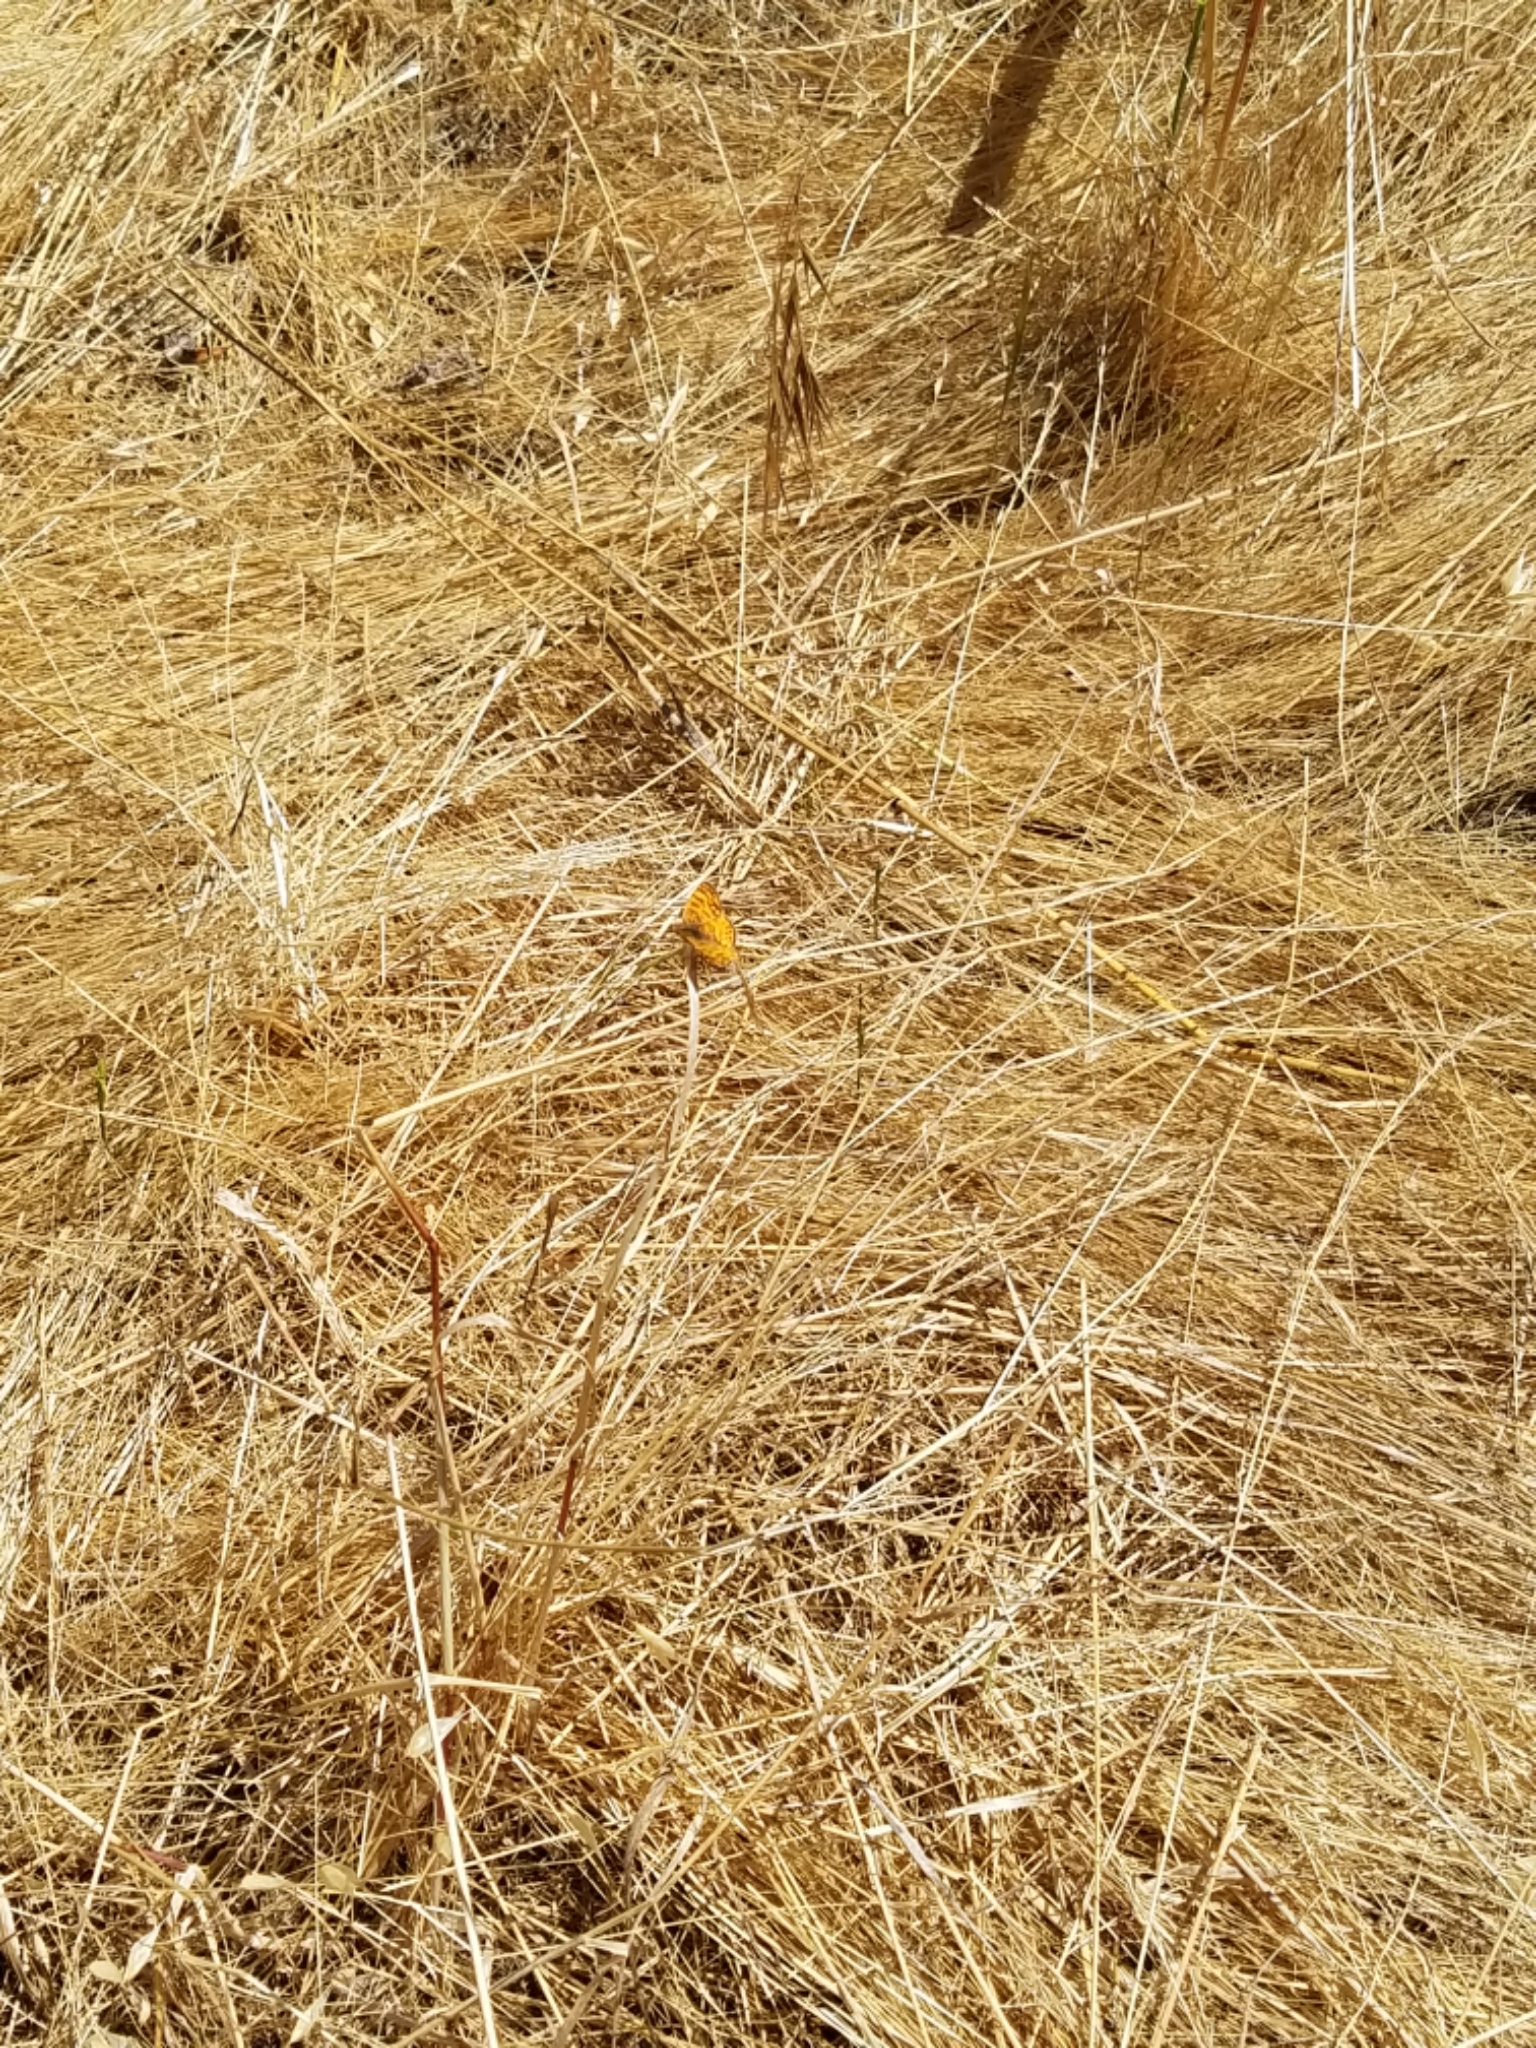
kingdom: Animalia
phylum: Arthropoda
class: Insecta
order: Lepidoptera
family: Nymphalidae
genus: Eresia
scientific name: Eresia aveyrona
